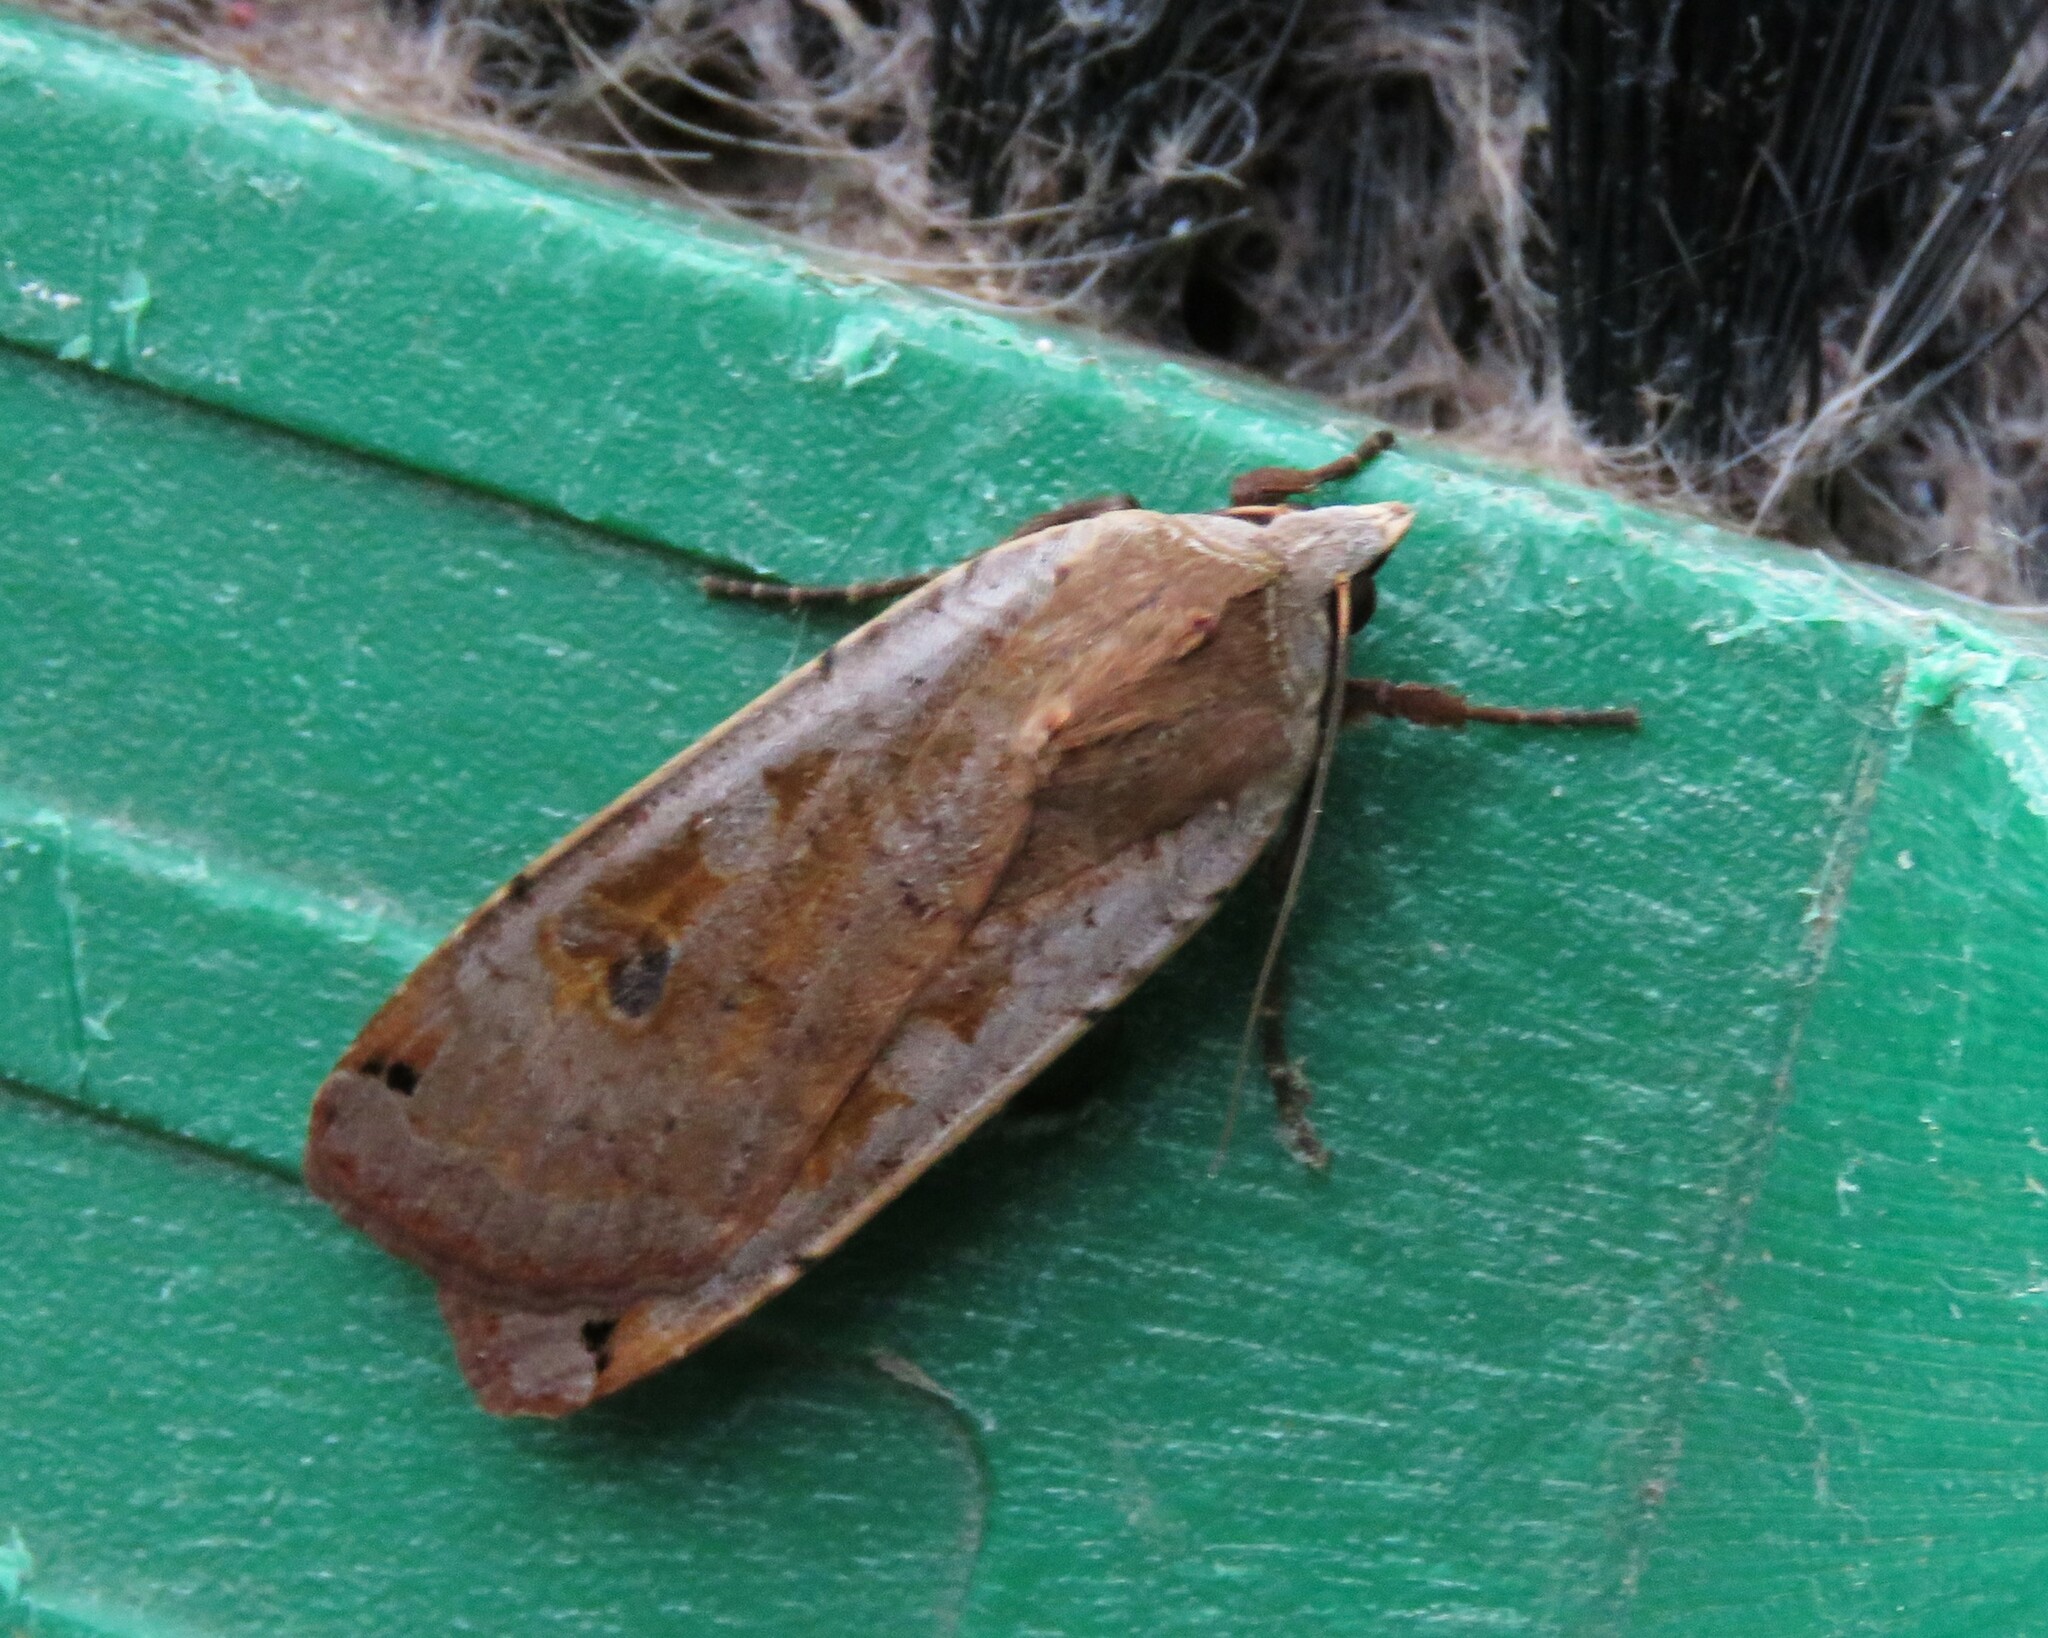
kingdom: Animalia
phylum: Arthropoda
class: Insecta
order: Lepidoptera
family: Noctuidae
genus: Noctua
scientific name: Noctua pronuba
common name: Large yellow underwing
